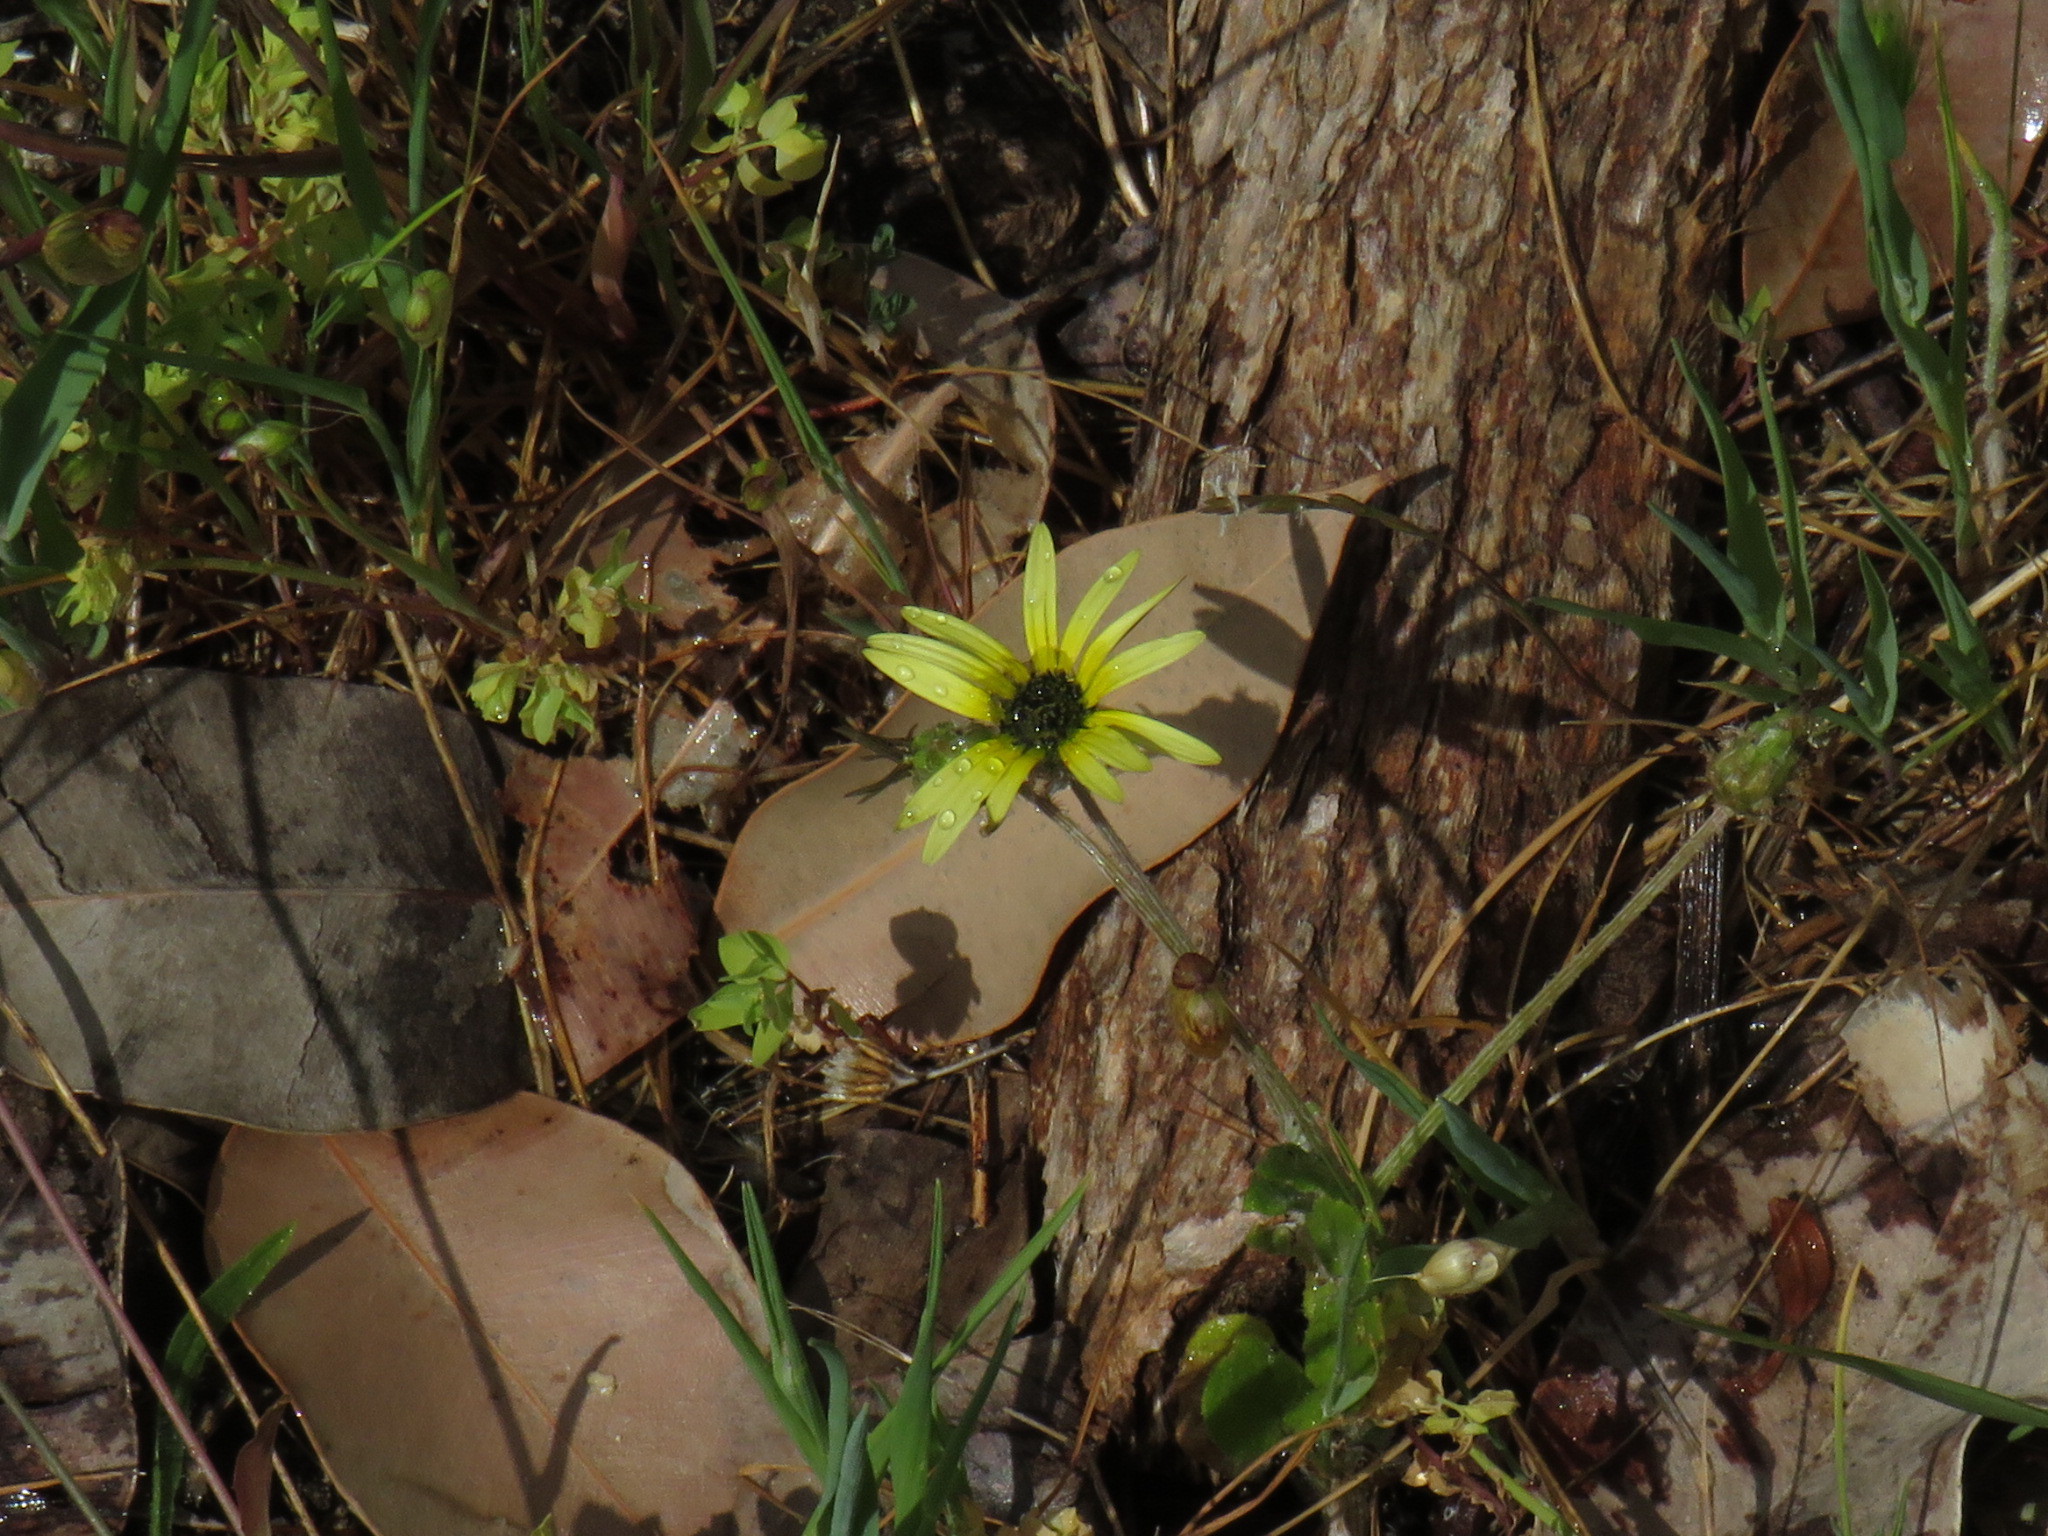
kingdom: Plantae
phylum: Tracheophyta
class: Magnoliopsida
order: Asterales
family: Asteraceae
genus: Arctotheca
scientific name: Arctotheca calendula
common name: Capeweed
